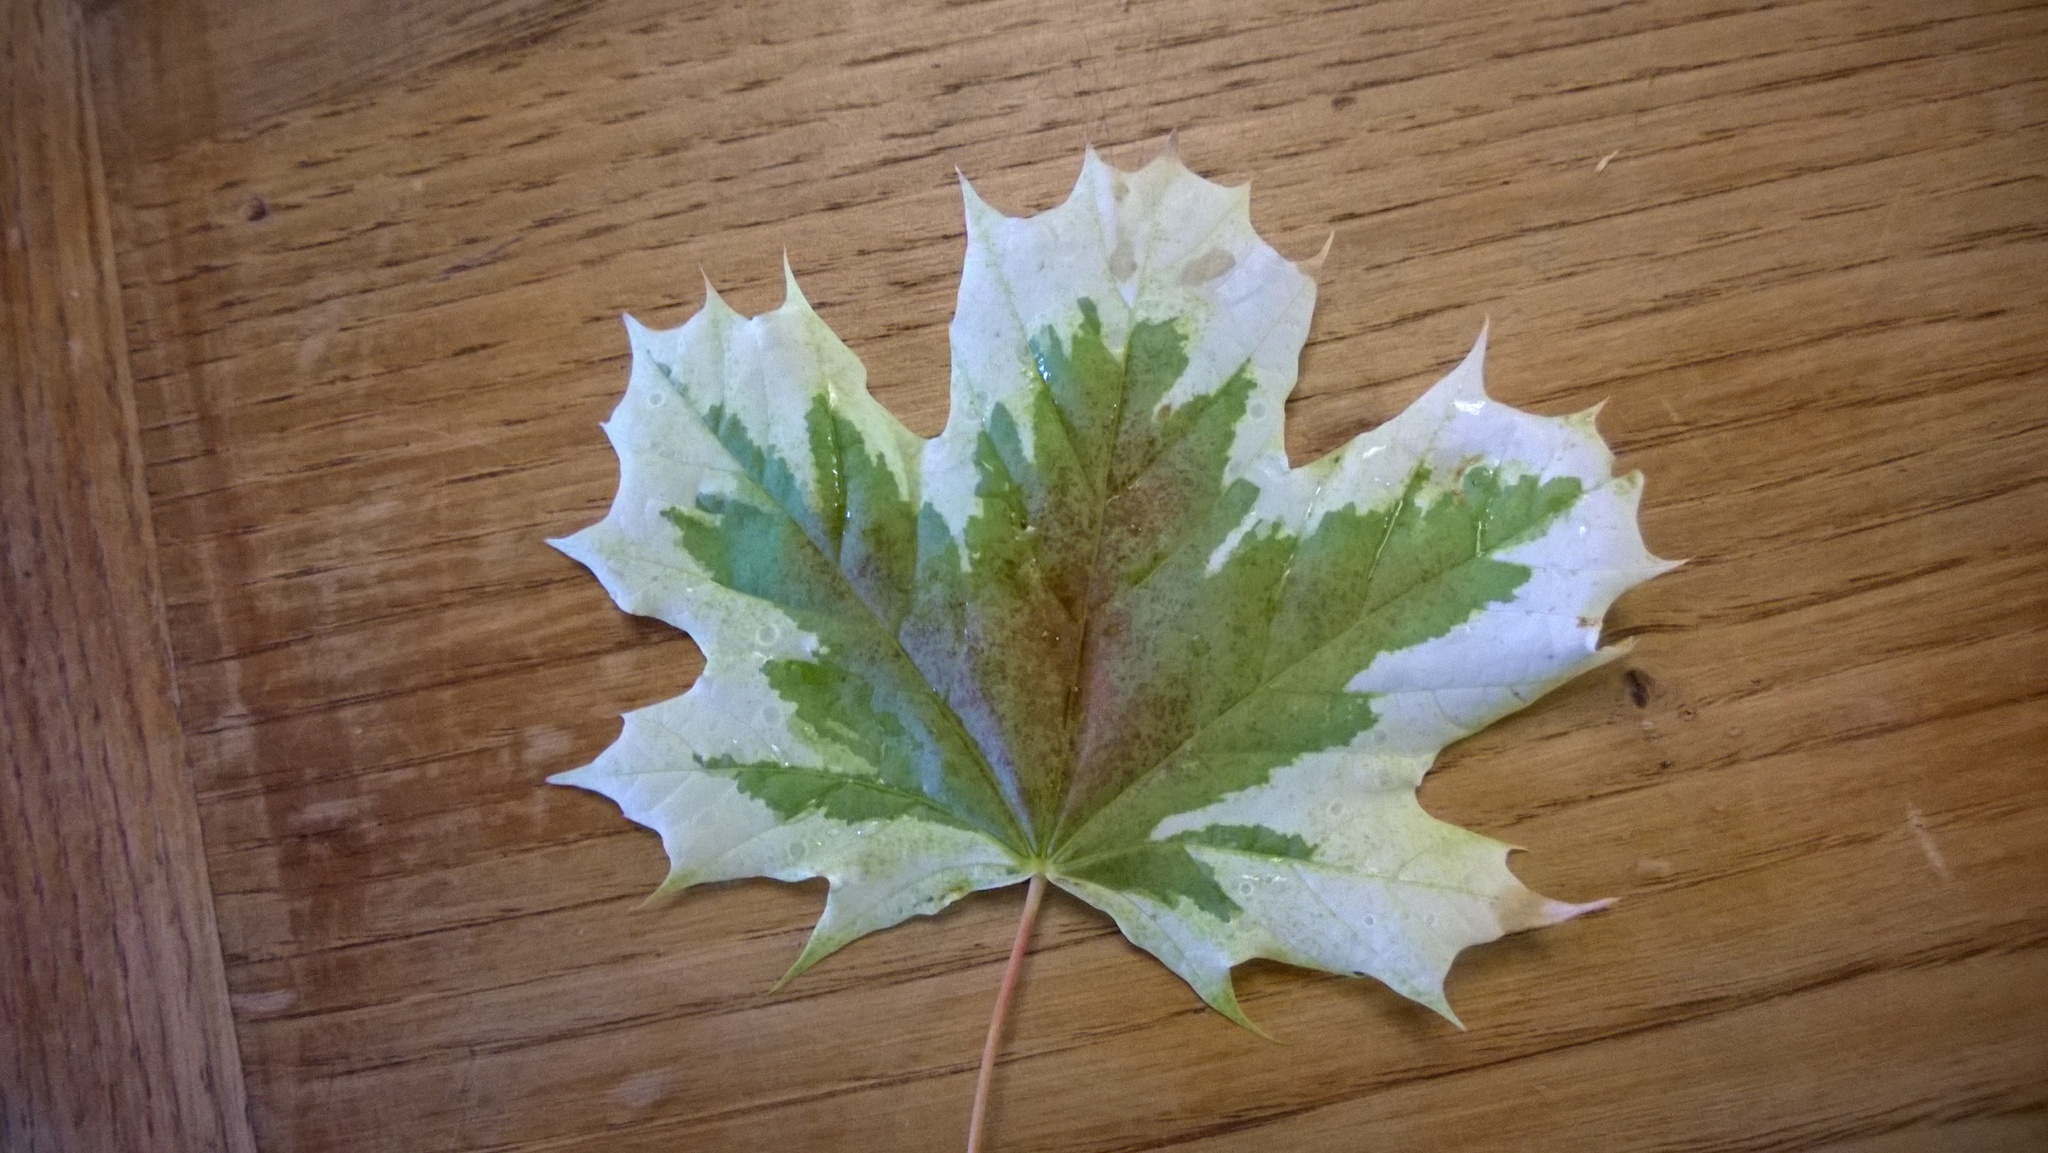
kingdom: Plantae
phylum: Tracheophyta
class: Magnoliopsida
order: Sapindales
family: Sapindaceae
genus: Acer
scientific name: Acer platanoides
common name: Norway maple
